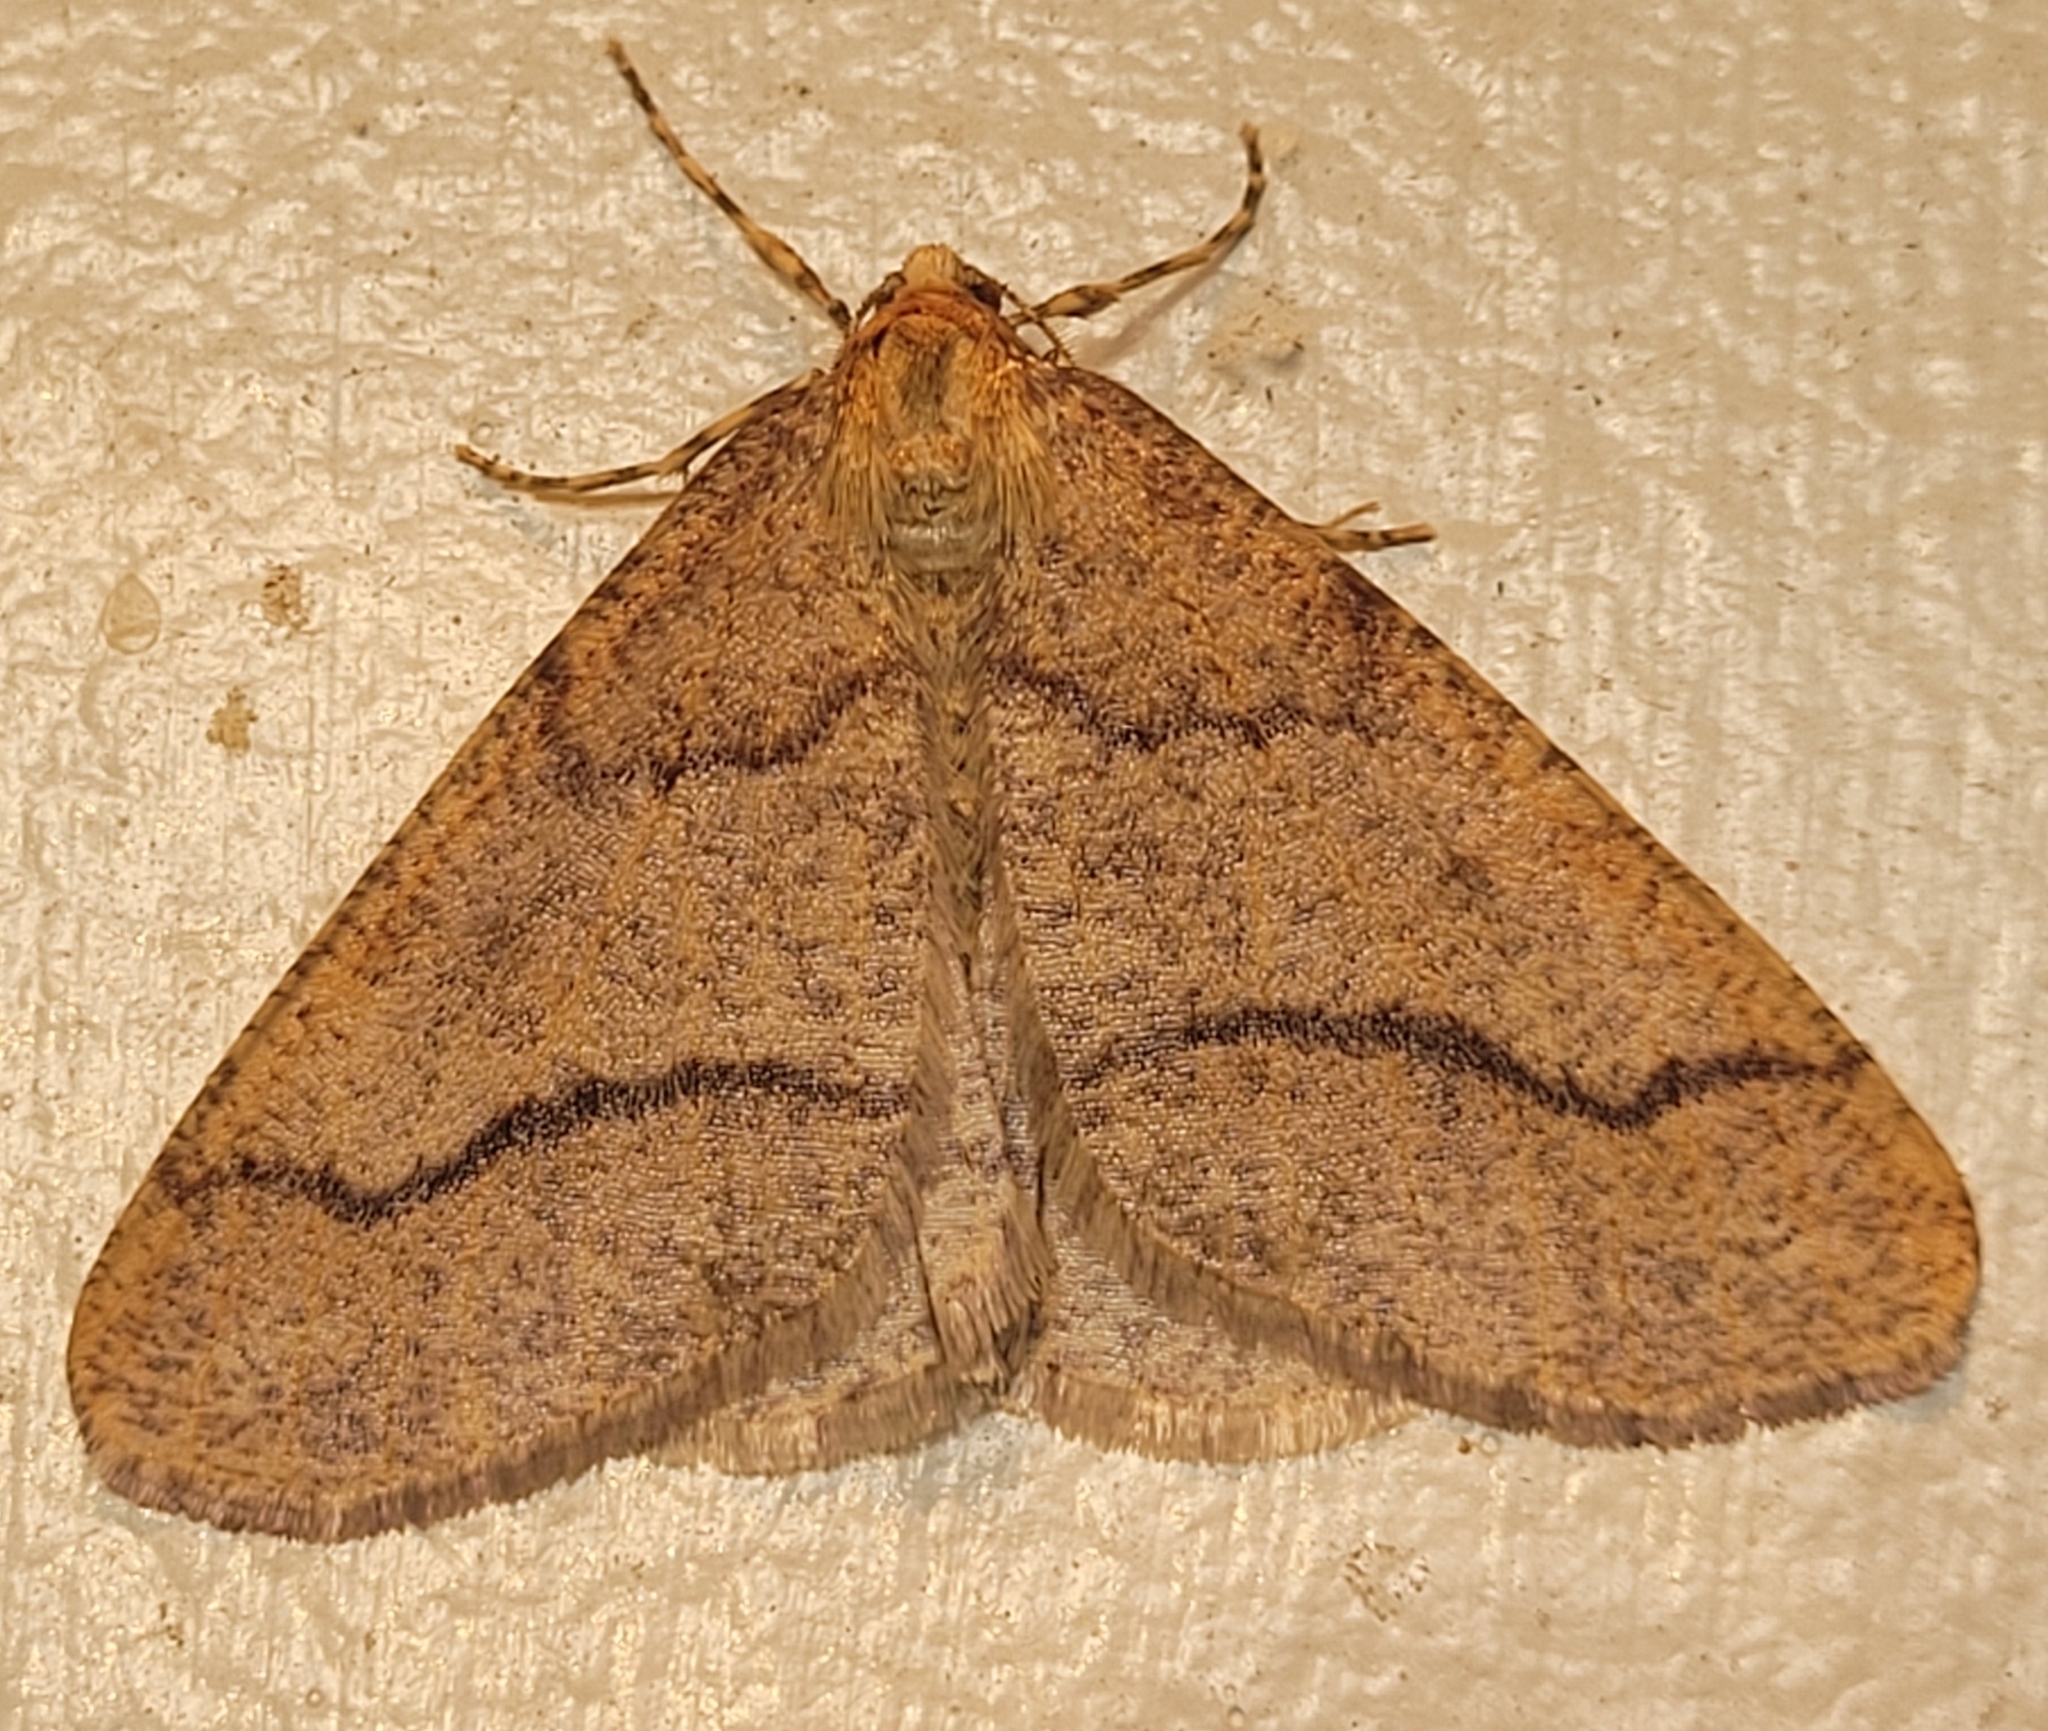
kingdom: Animalia
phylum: Arthropoda
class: Insecta
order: Lepidoptera
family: Geometridae
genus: Erannis
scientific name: Erannis tiliaria
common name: Linden looper
